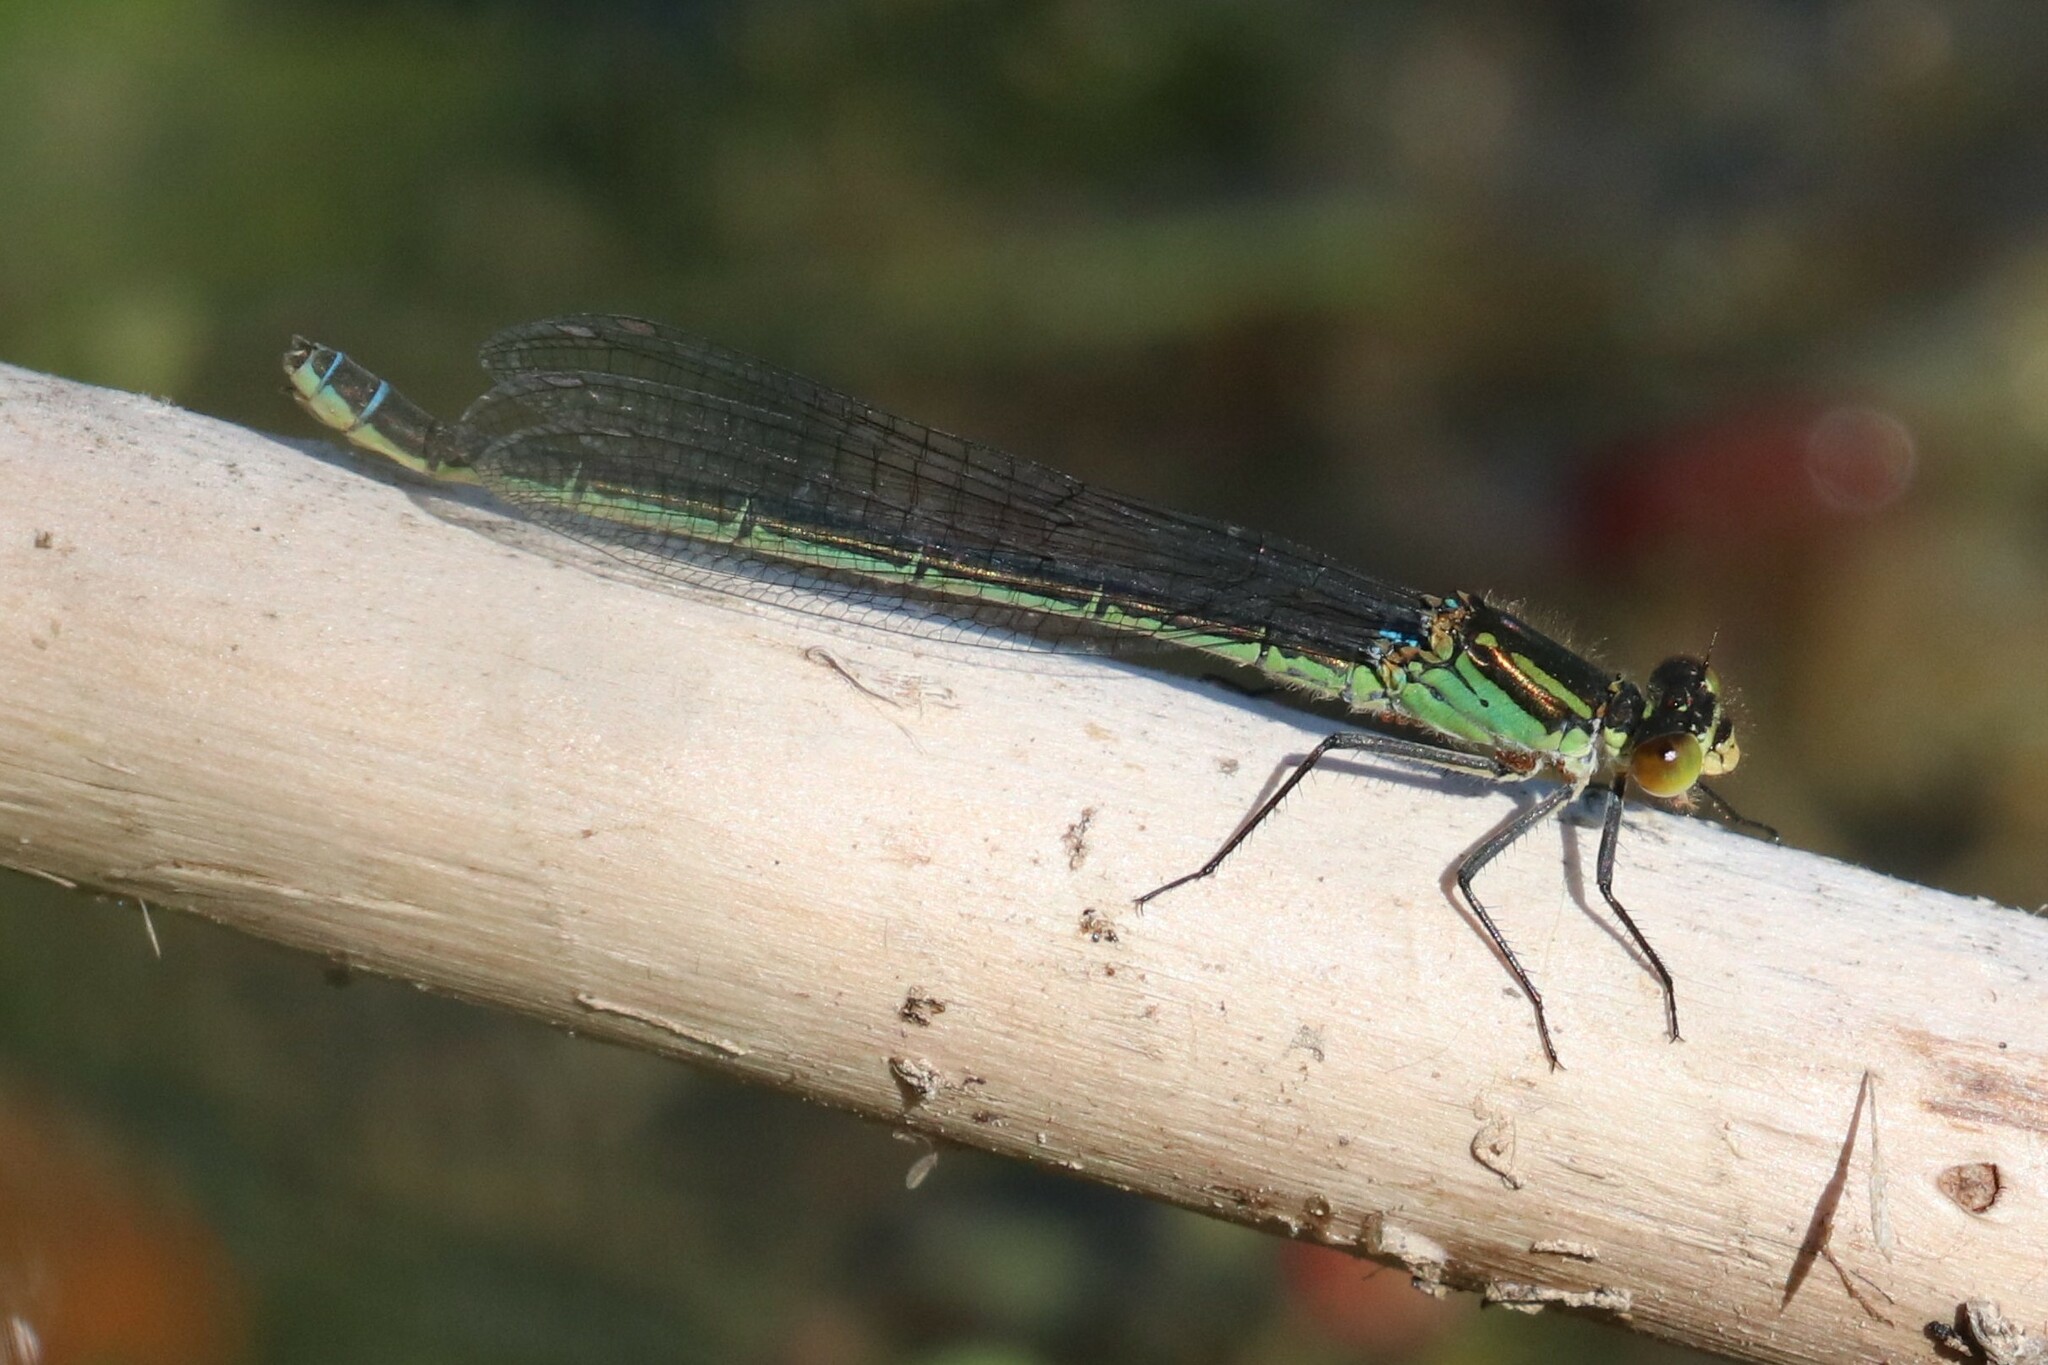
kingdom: Animalia
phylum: Arthropoda
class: Insecta
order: Odonata
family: Coenagrionidae
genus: Erythromma
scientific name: Erythromma najas
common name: Red-eyed damselfly
